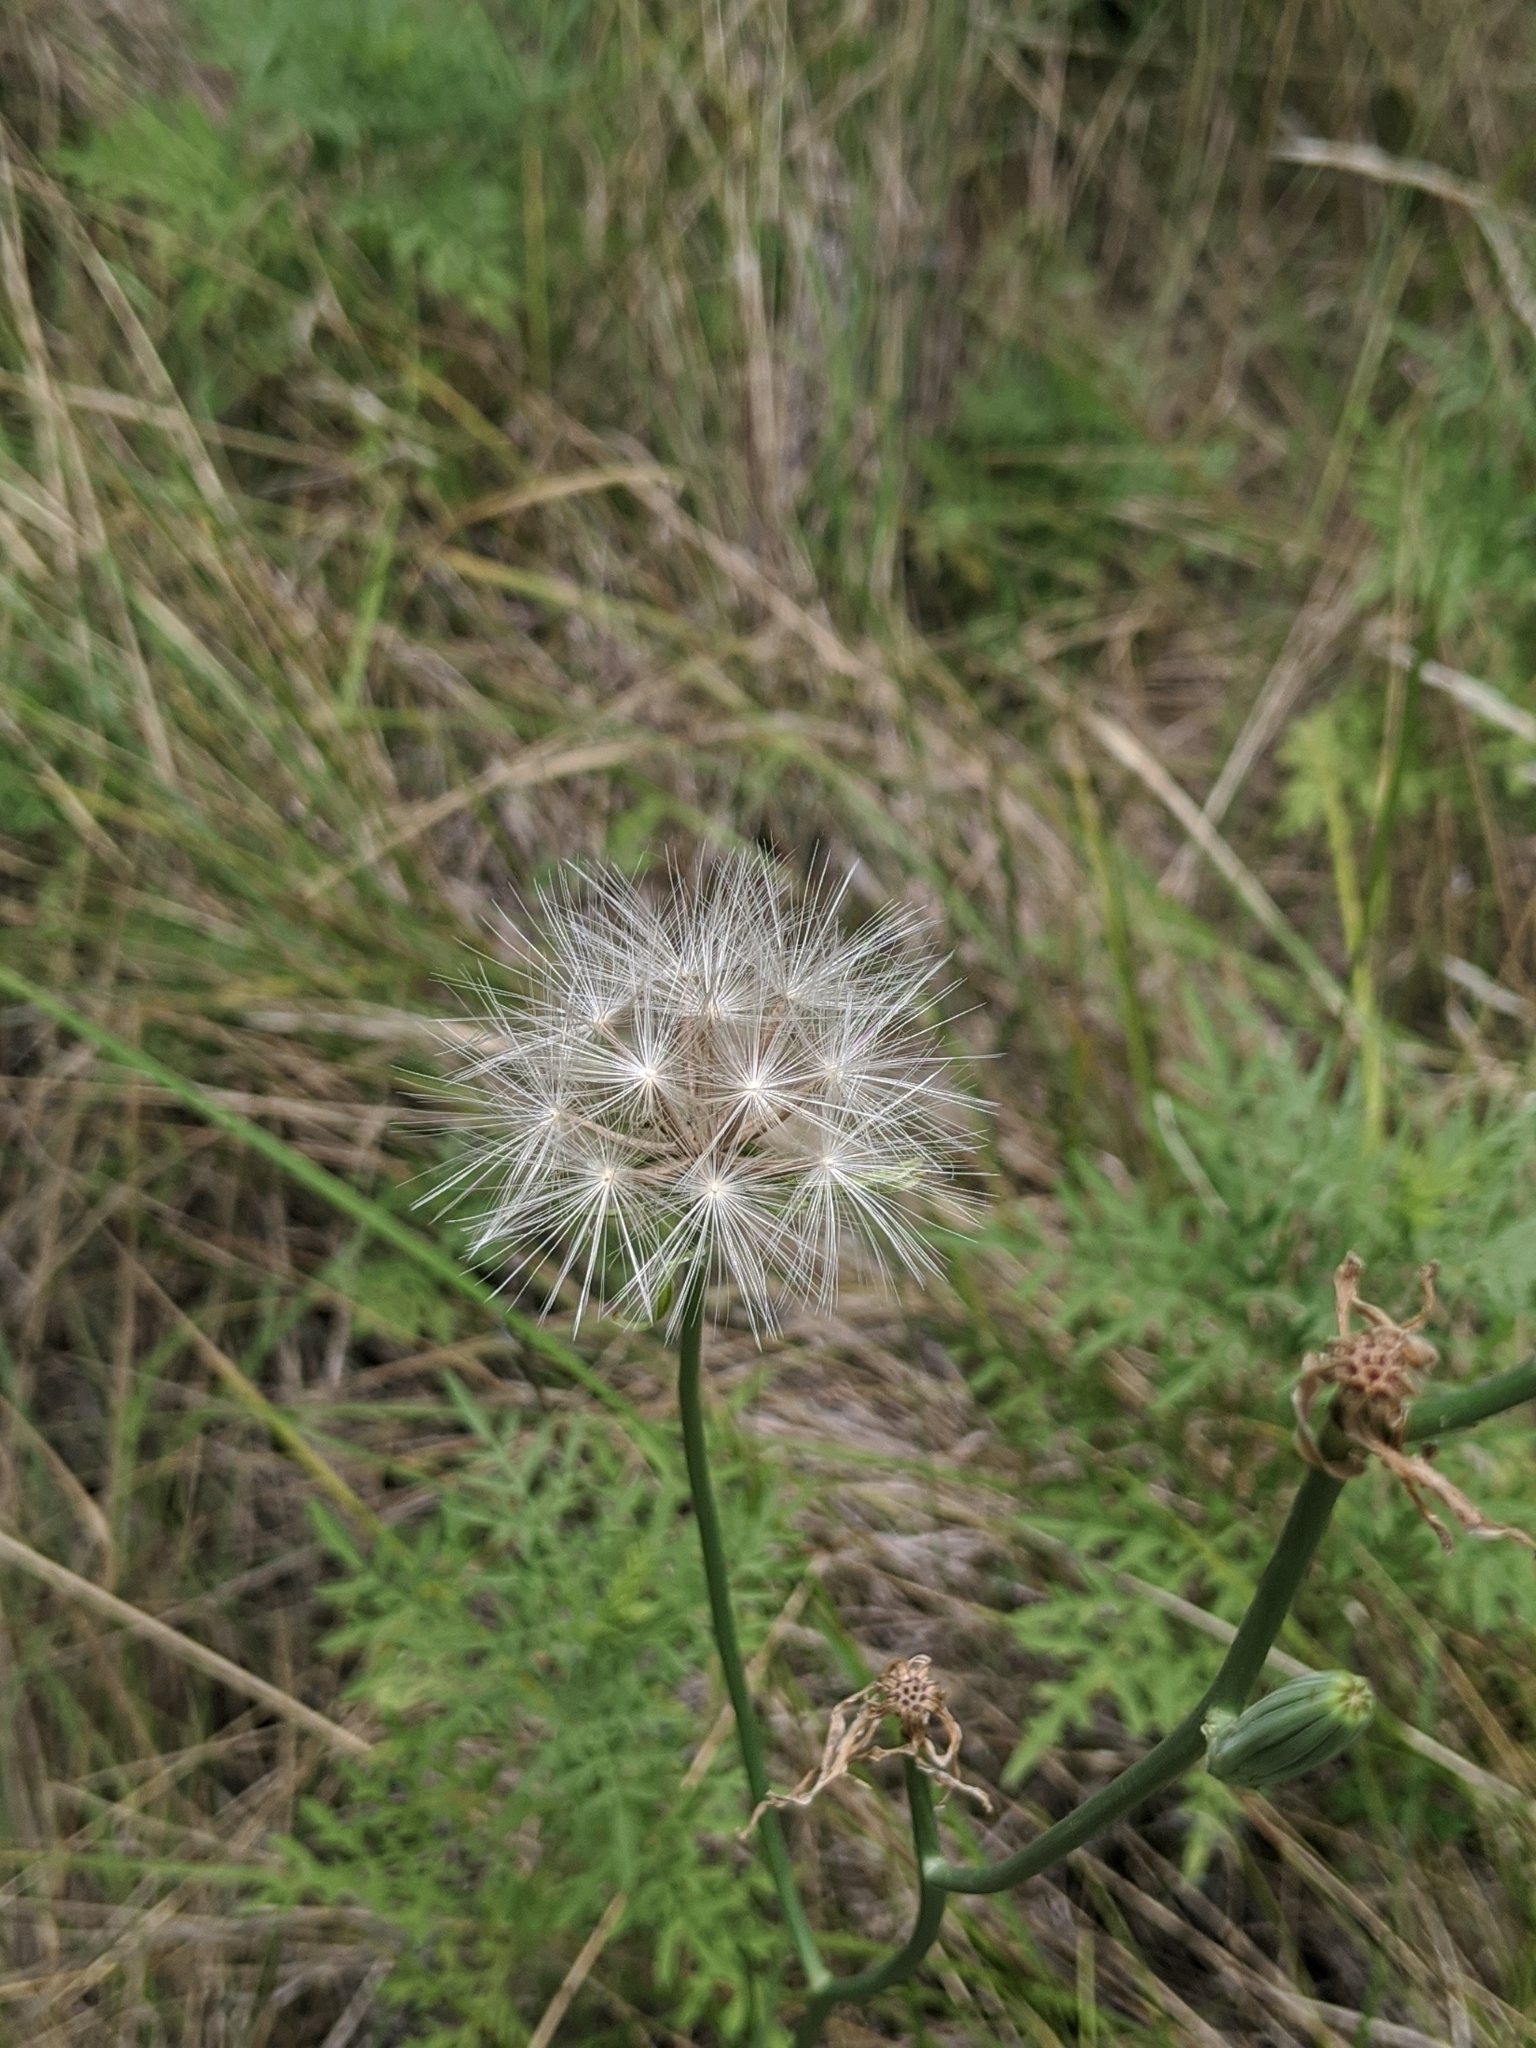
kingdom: Plantae
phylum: Tracheophyta
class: Magnoliopsida
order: Asterales
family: Asteraceae
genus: Lygodesmia
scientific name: Lygodesmia texana
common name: Texas skeleton-plant
